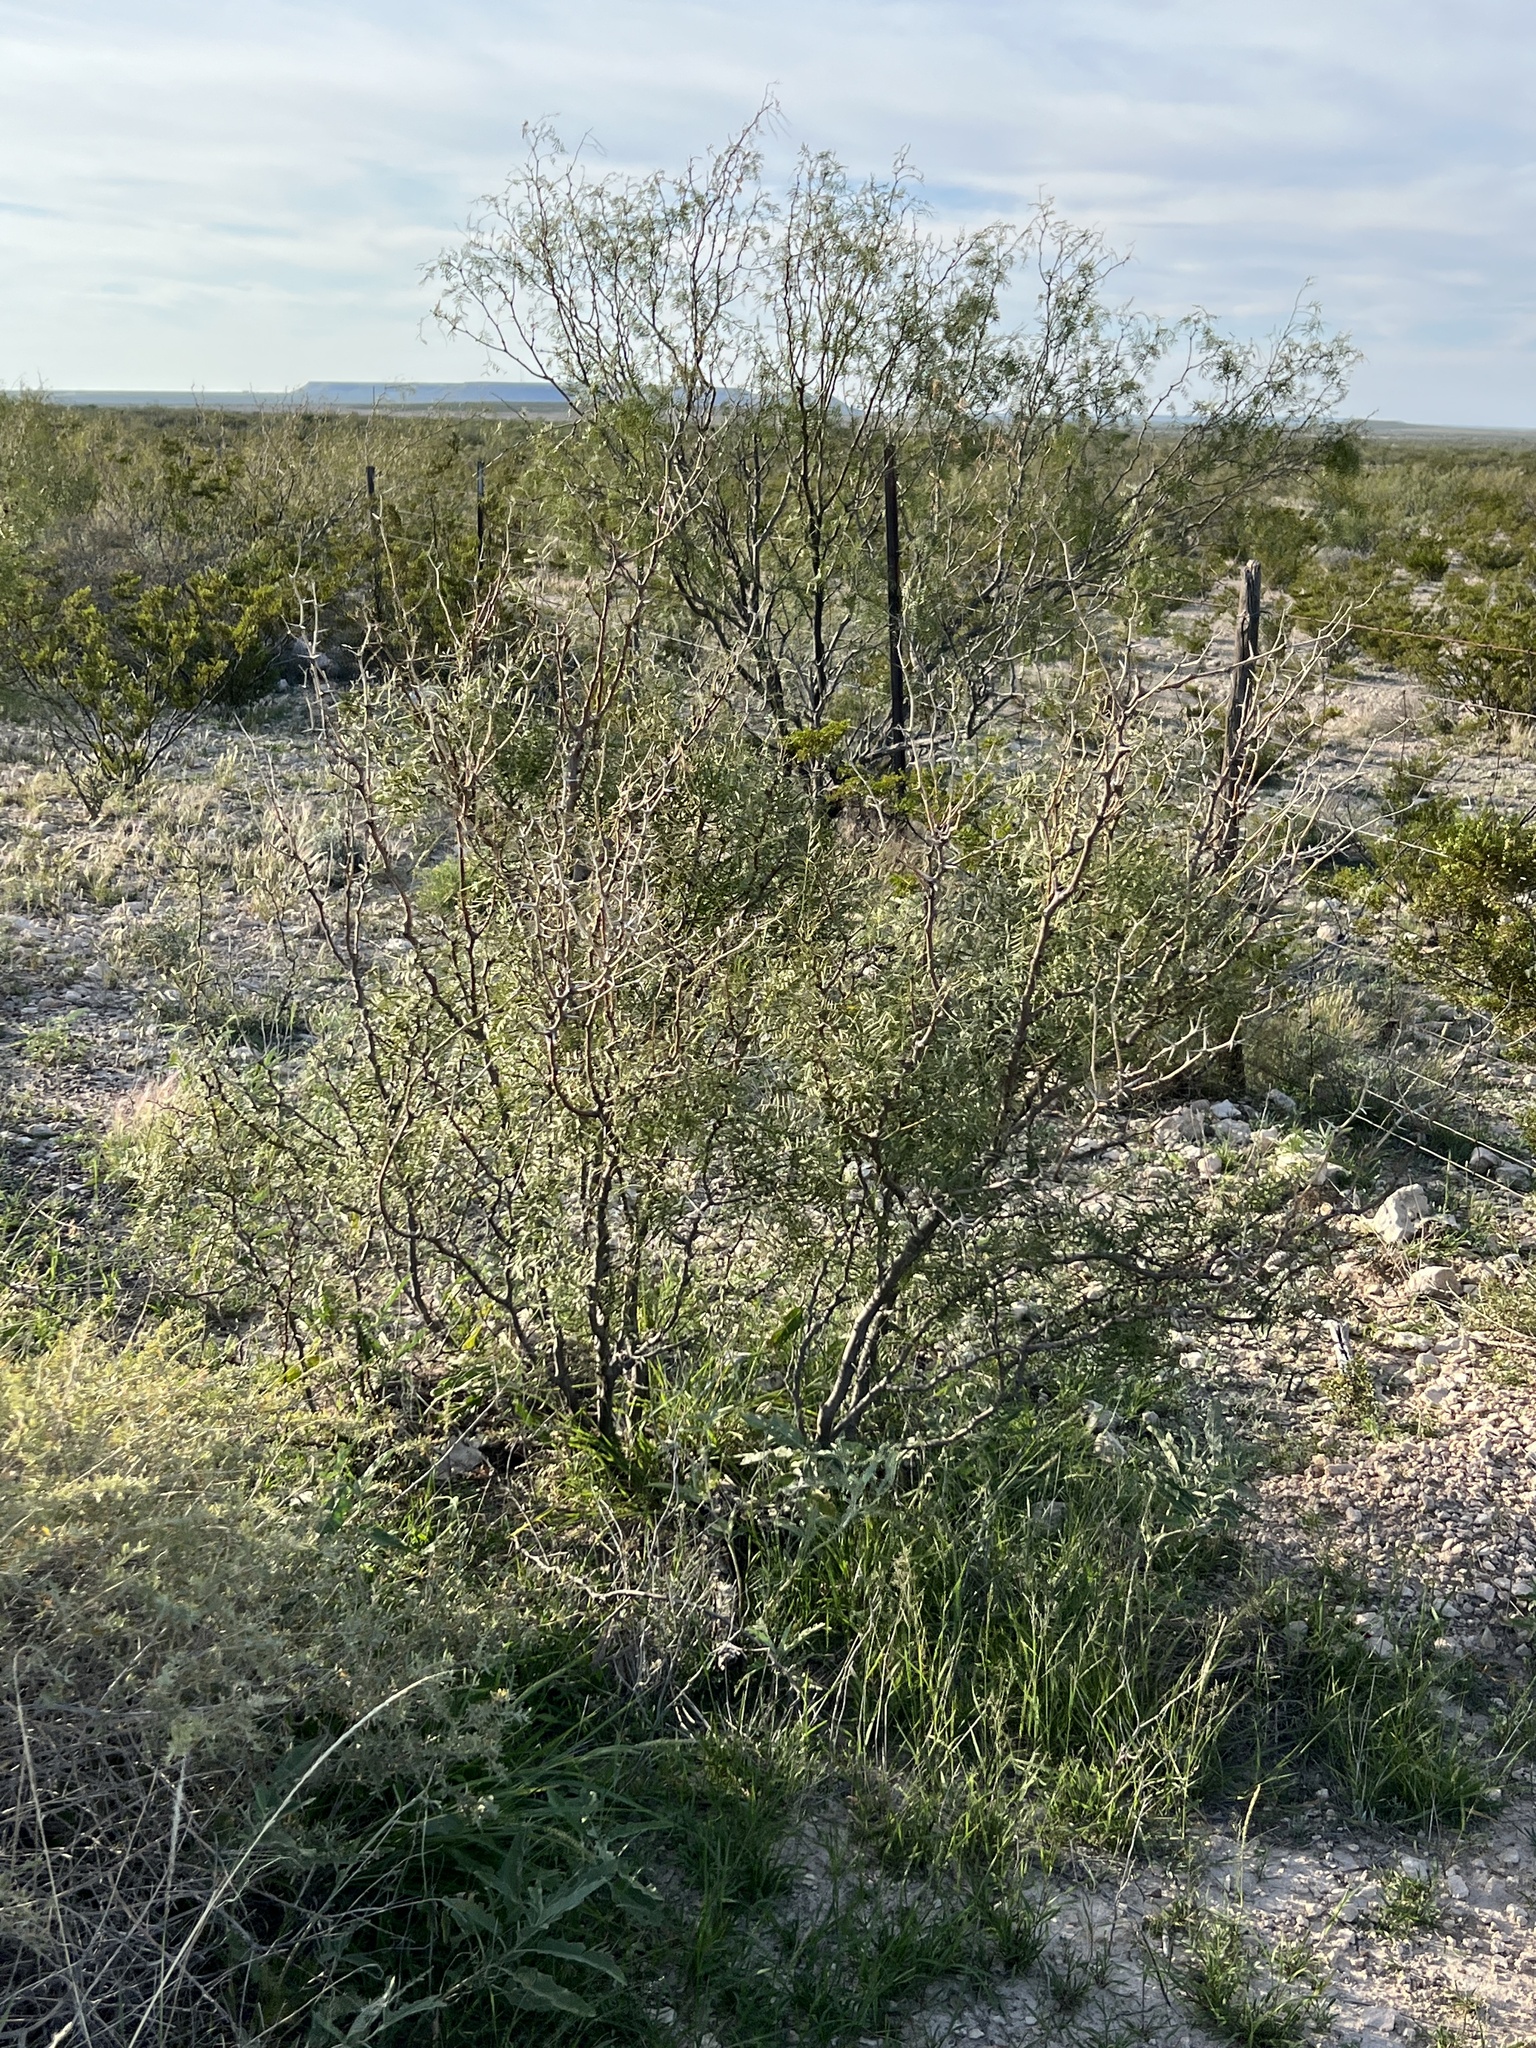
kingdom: Plantae
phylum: Tracheophyta
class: Magnoliopsida
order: Fabales
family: Fabaceae
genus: Prosopis
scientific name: Prosopis pubescens
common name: Screw-bean
